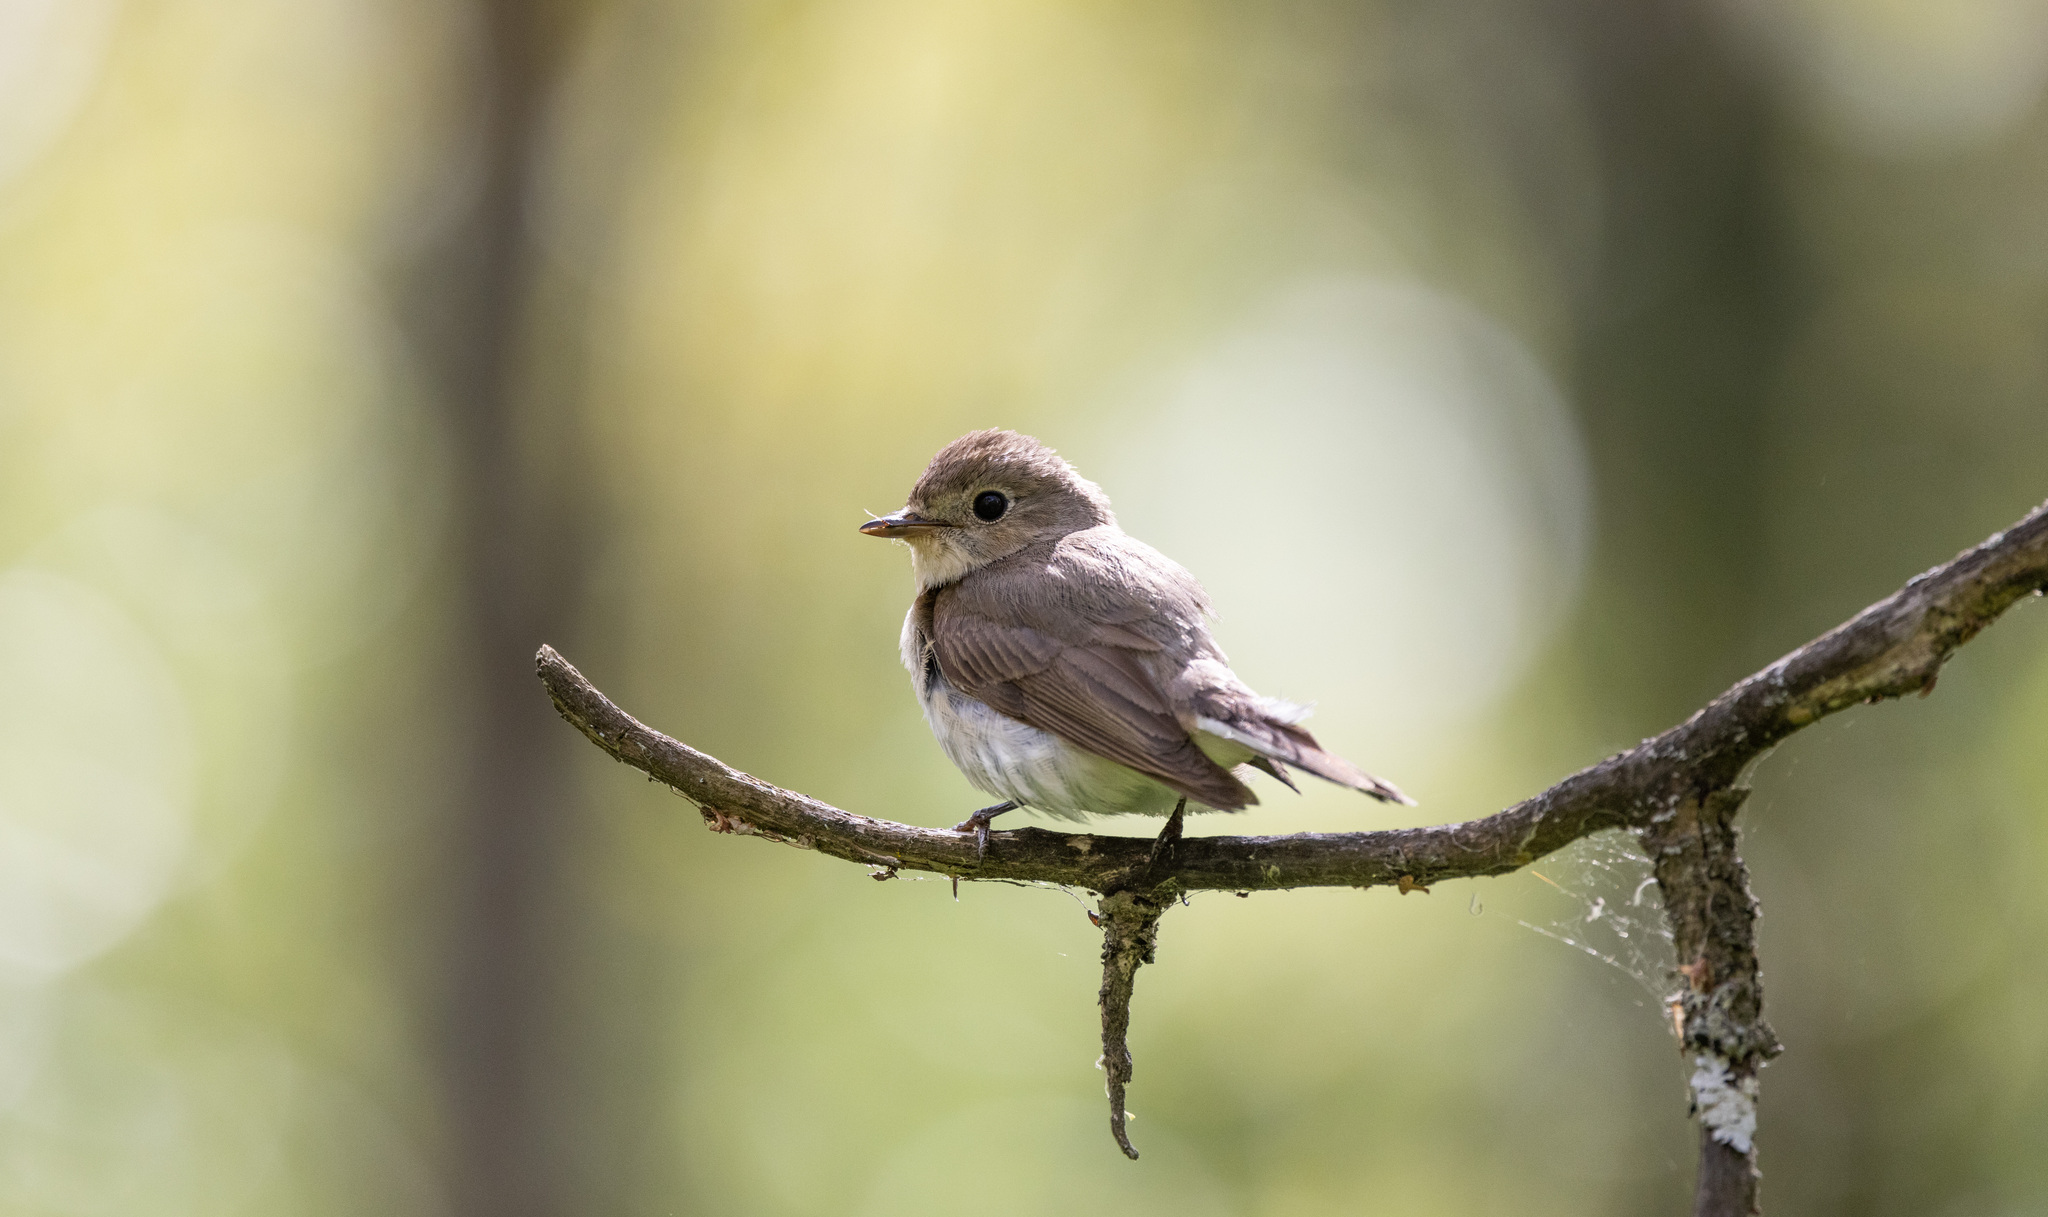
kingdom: Animalia
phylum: Chordata
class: Aves
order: Passeriformes
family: Muscicapidae
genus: Ficedula
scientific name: Ficedula parva
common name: Red-breasted flycatcher
